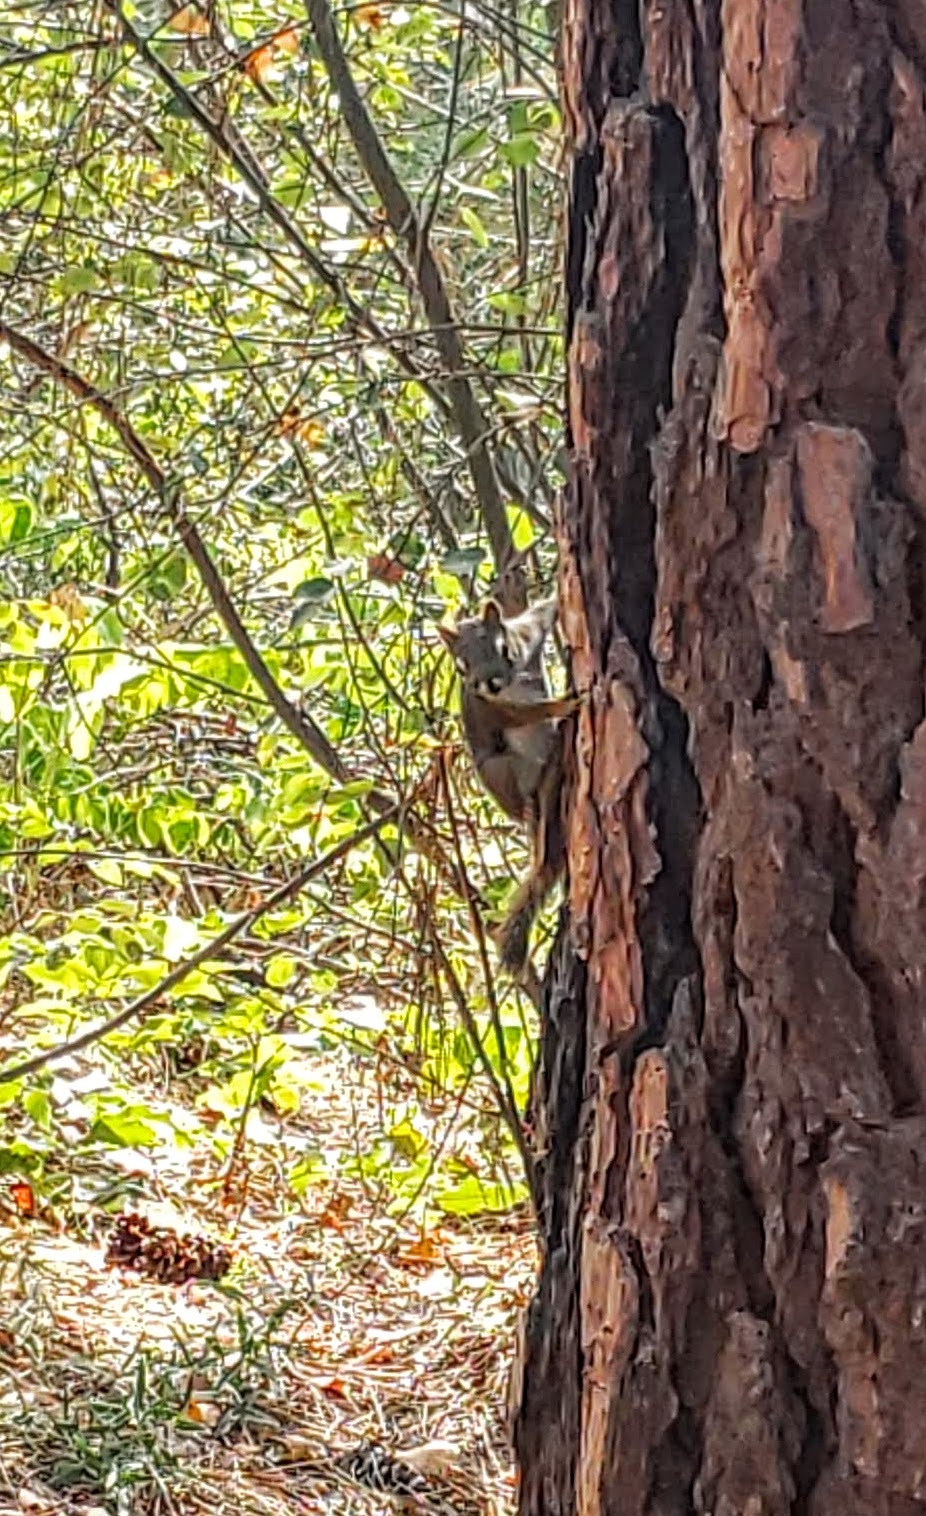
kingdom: Animalia
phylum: Chordata
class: Mammalia
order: Rodentia
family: Sciuridae
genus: Tamiasciurus
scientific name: Tamiasciurus hudsonicus
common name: Red squirrel
